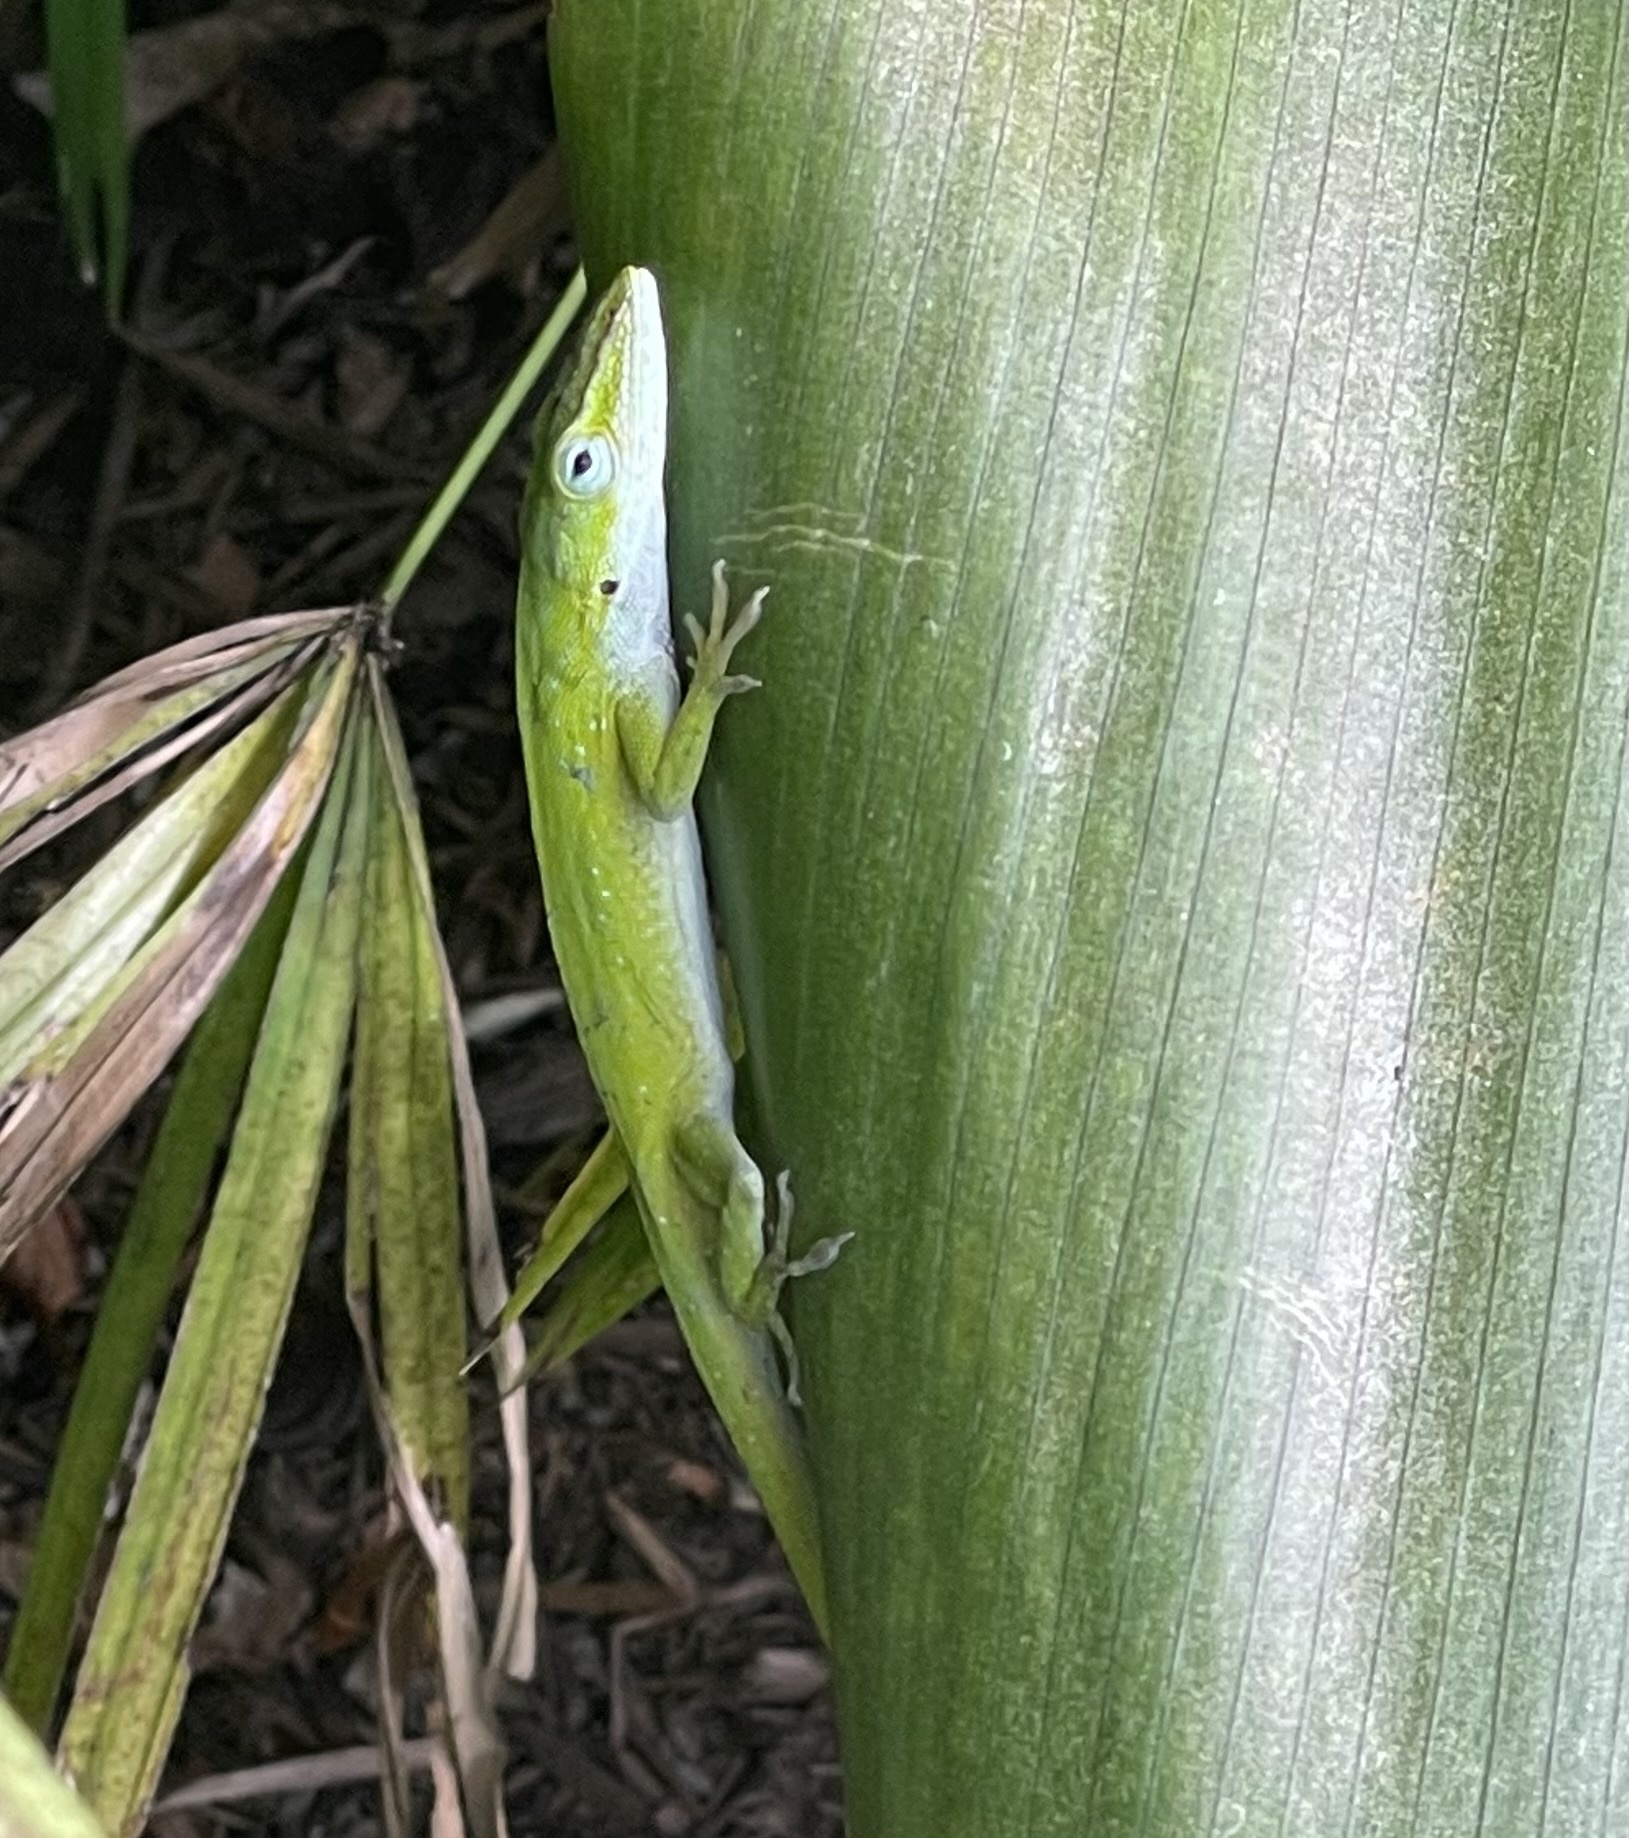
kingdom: Animalia
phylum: Chordata
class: Squamata
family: Dactyloidae
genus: Anolis
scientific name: Anolis carolinensis
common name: Green anole
